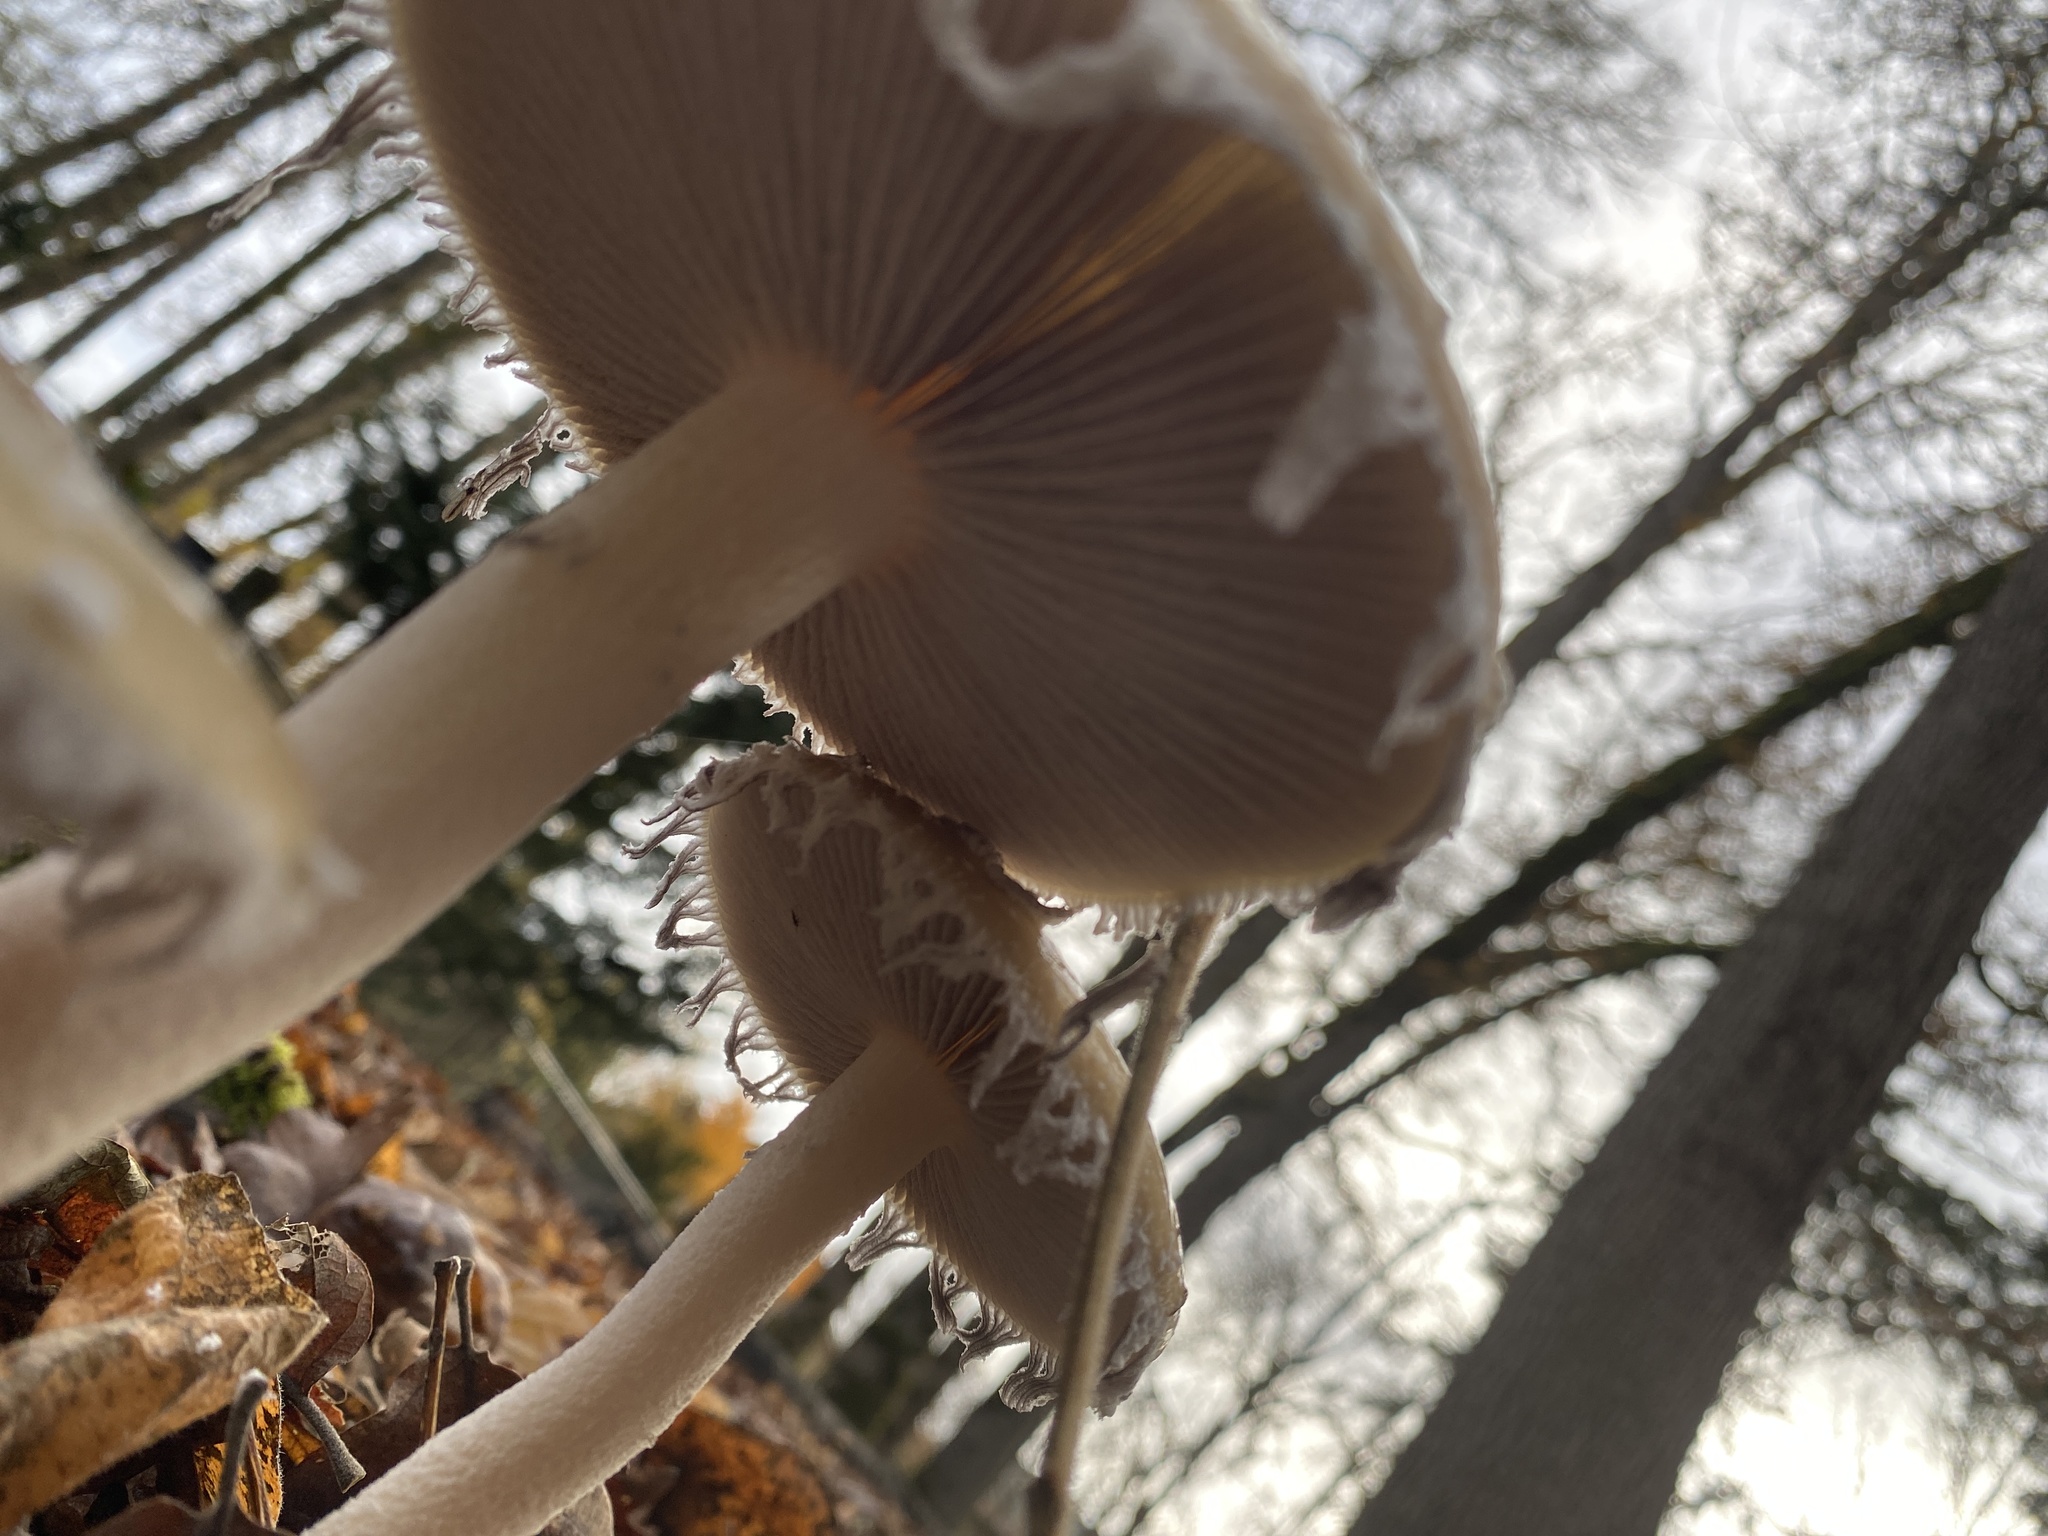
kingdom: Fungi
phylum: Basidiomycota
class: Agaricomycetes
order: Agaricales
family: Strophariaceae
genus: Stropharia
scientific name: Stropharia ambigua
